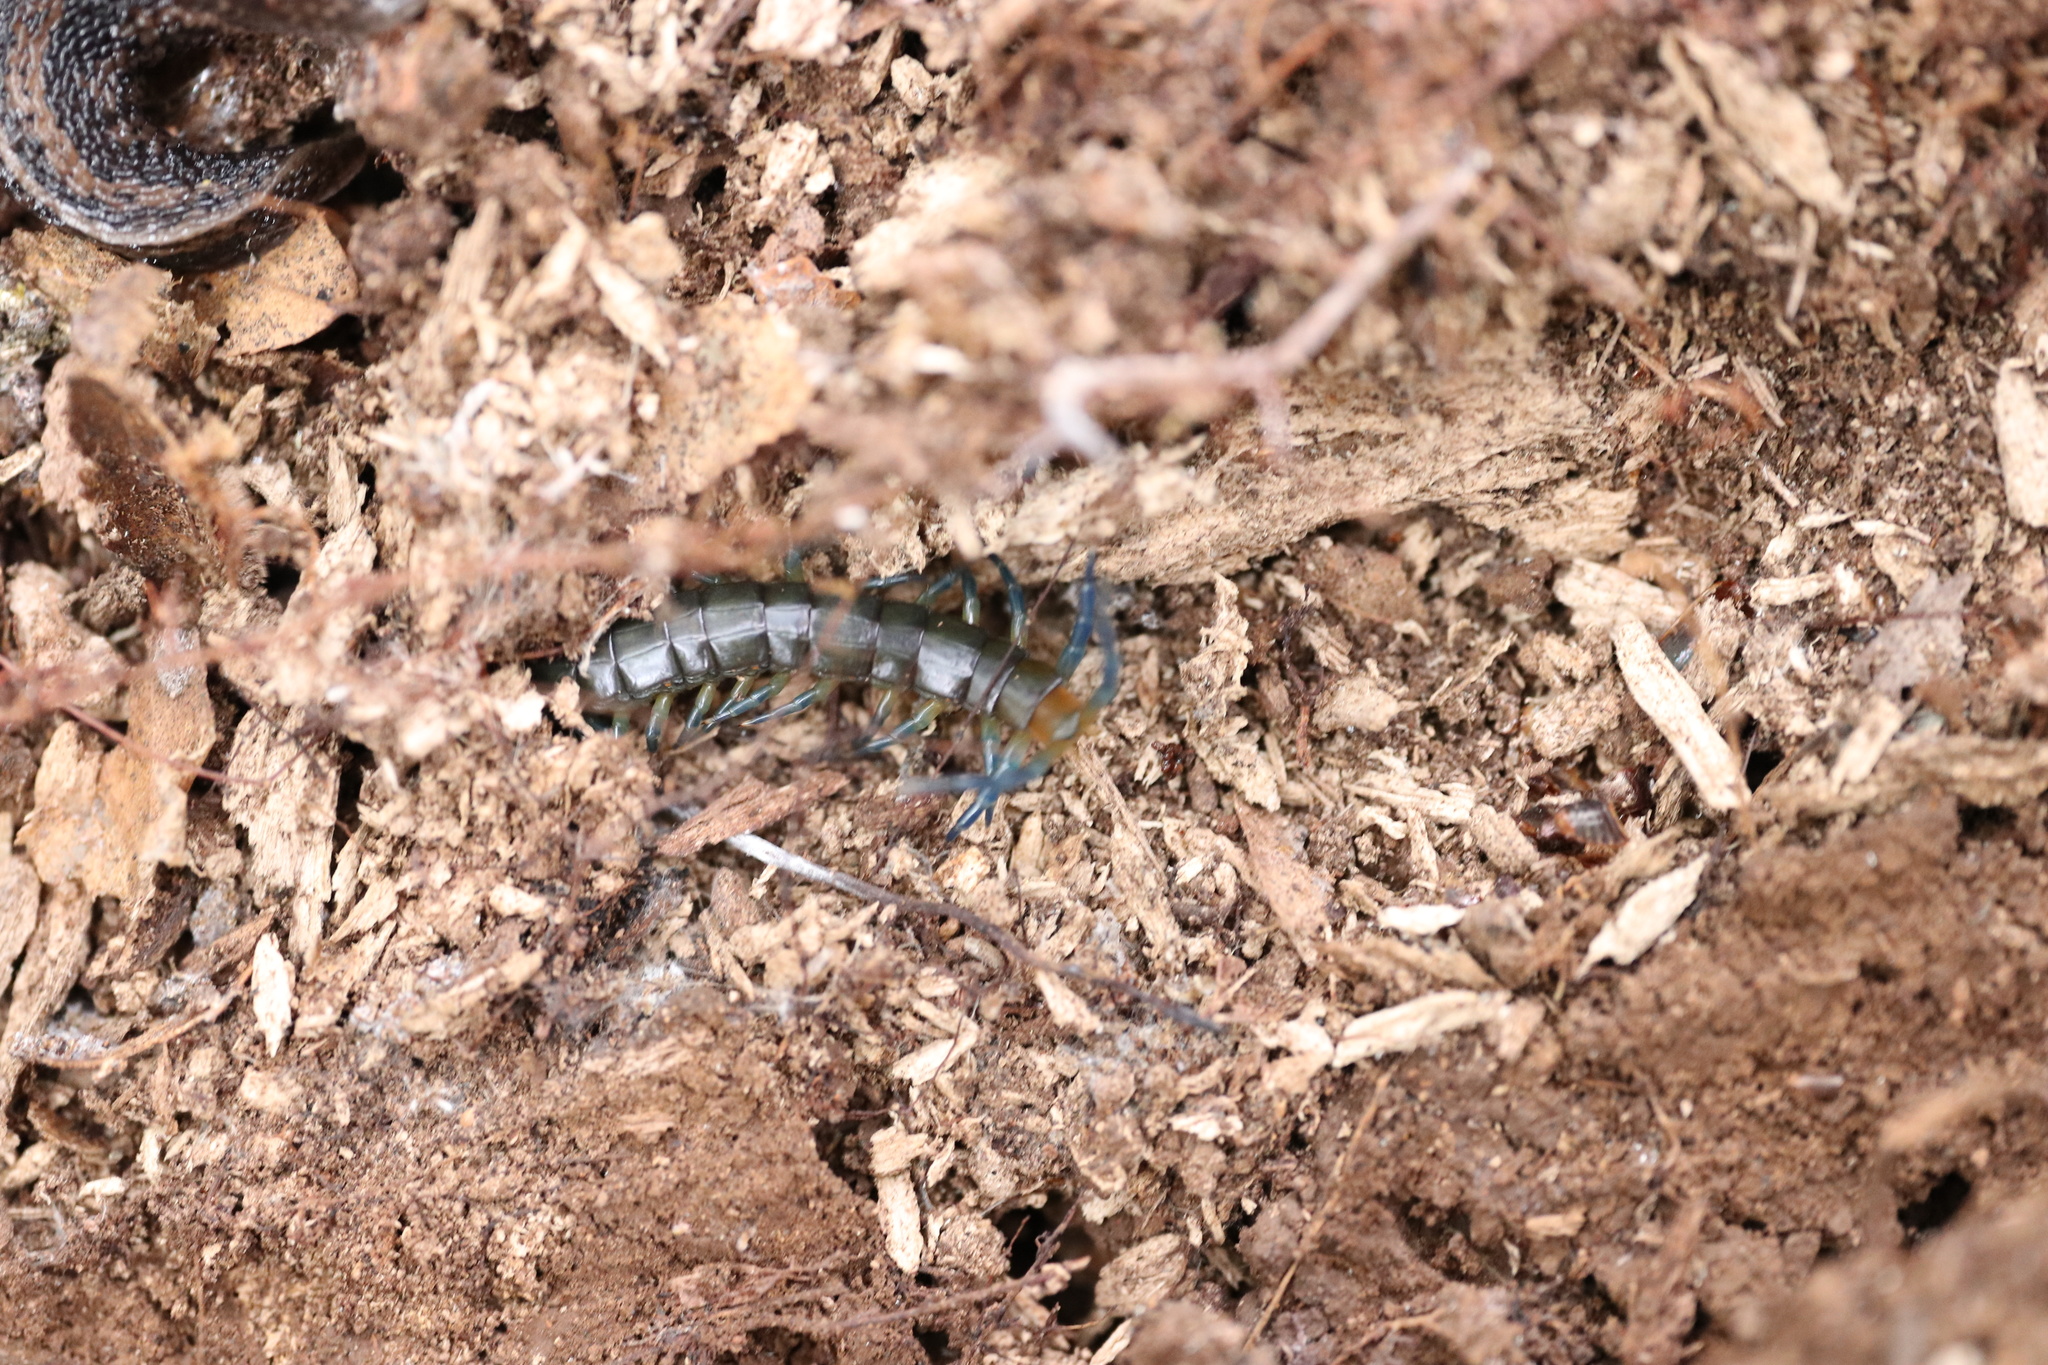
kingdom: Animalia
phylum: Arthropoda
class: Chilopoda
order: Scolopendromorpha
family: Scolopendridae
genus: Hemiscolopendra
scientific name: Hemiscolopendra chilensis
